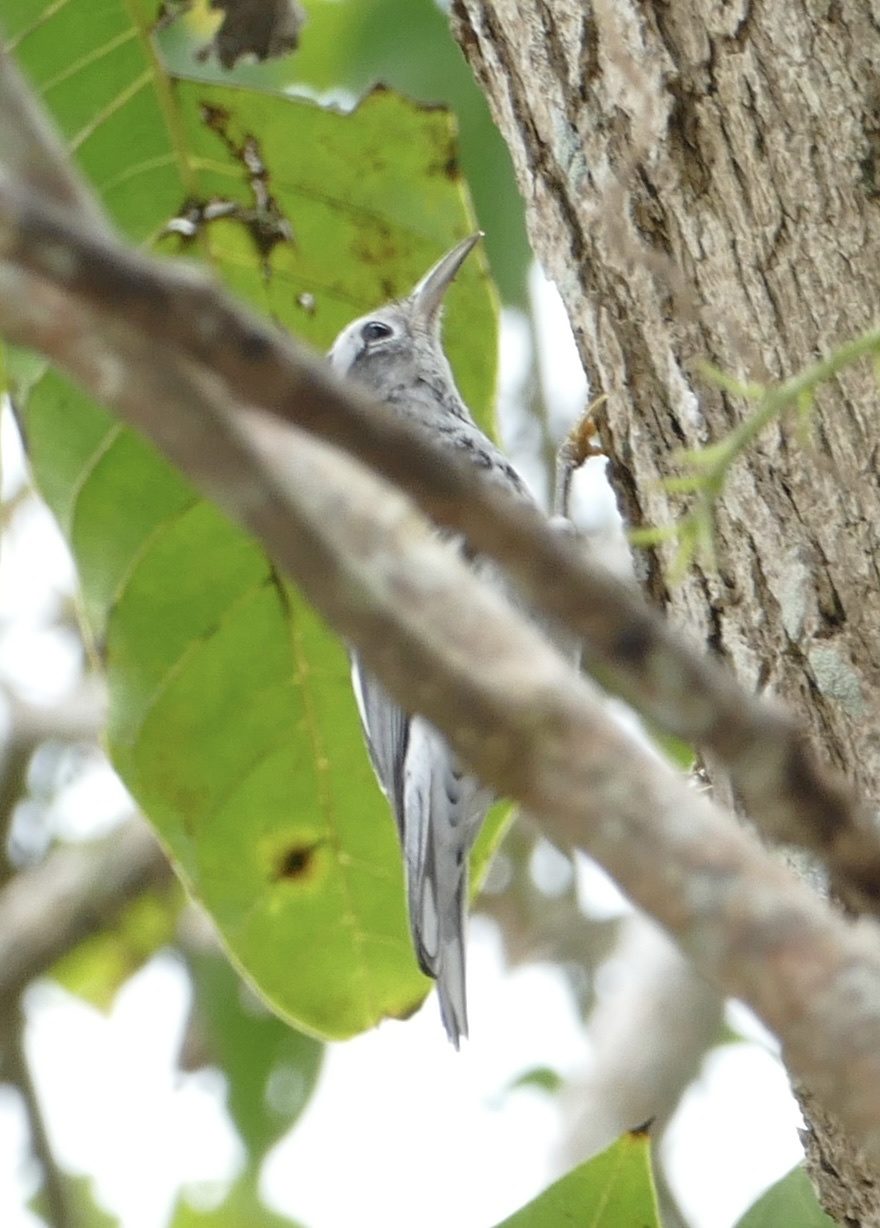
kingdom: Animalia
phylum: Chordata
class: Aves
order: Passeriformes
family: Parulidae
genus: Mniotilta
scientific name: Mniotilta varia
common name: Black-and-white warbler
